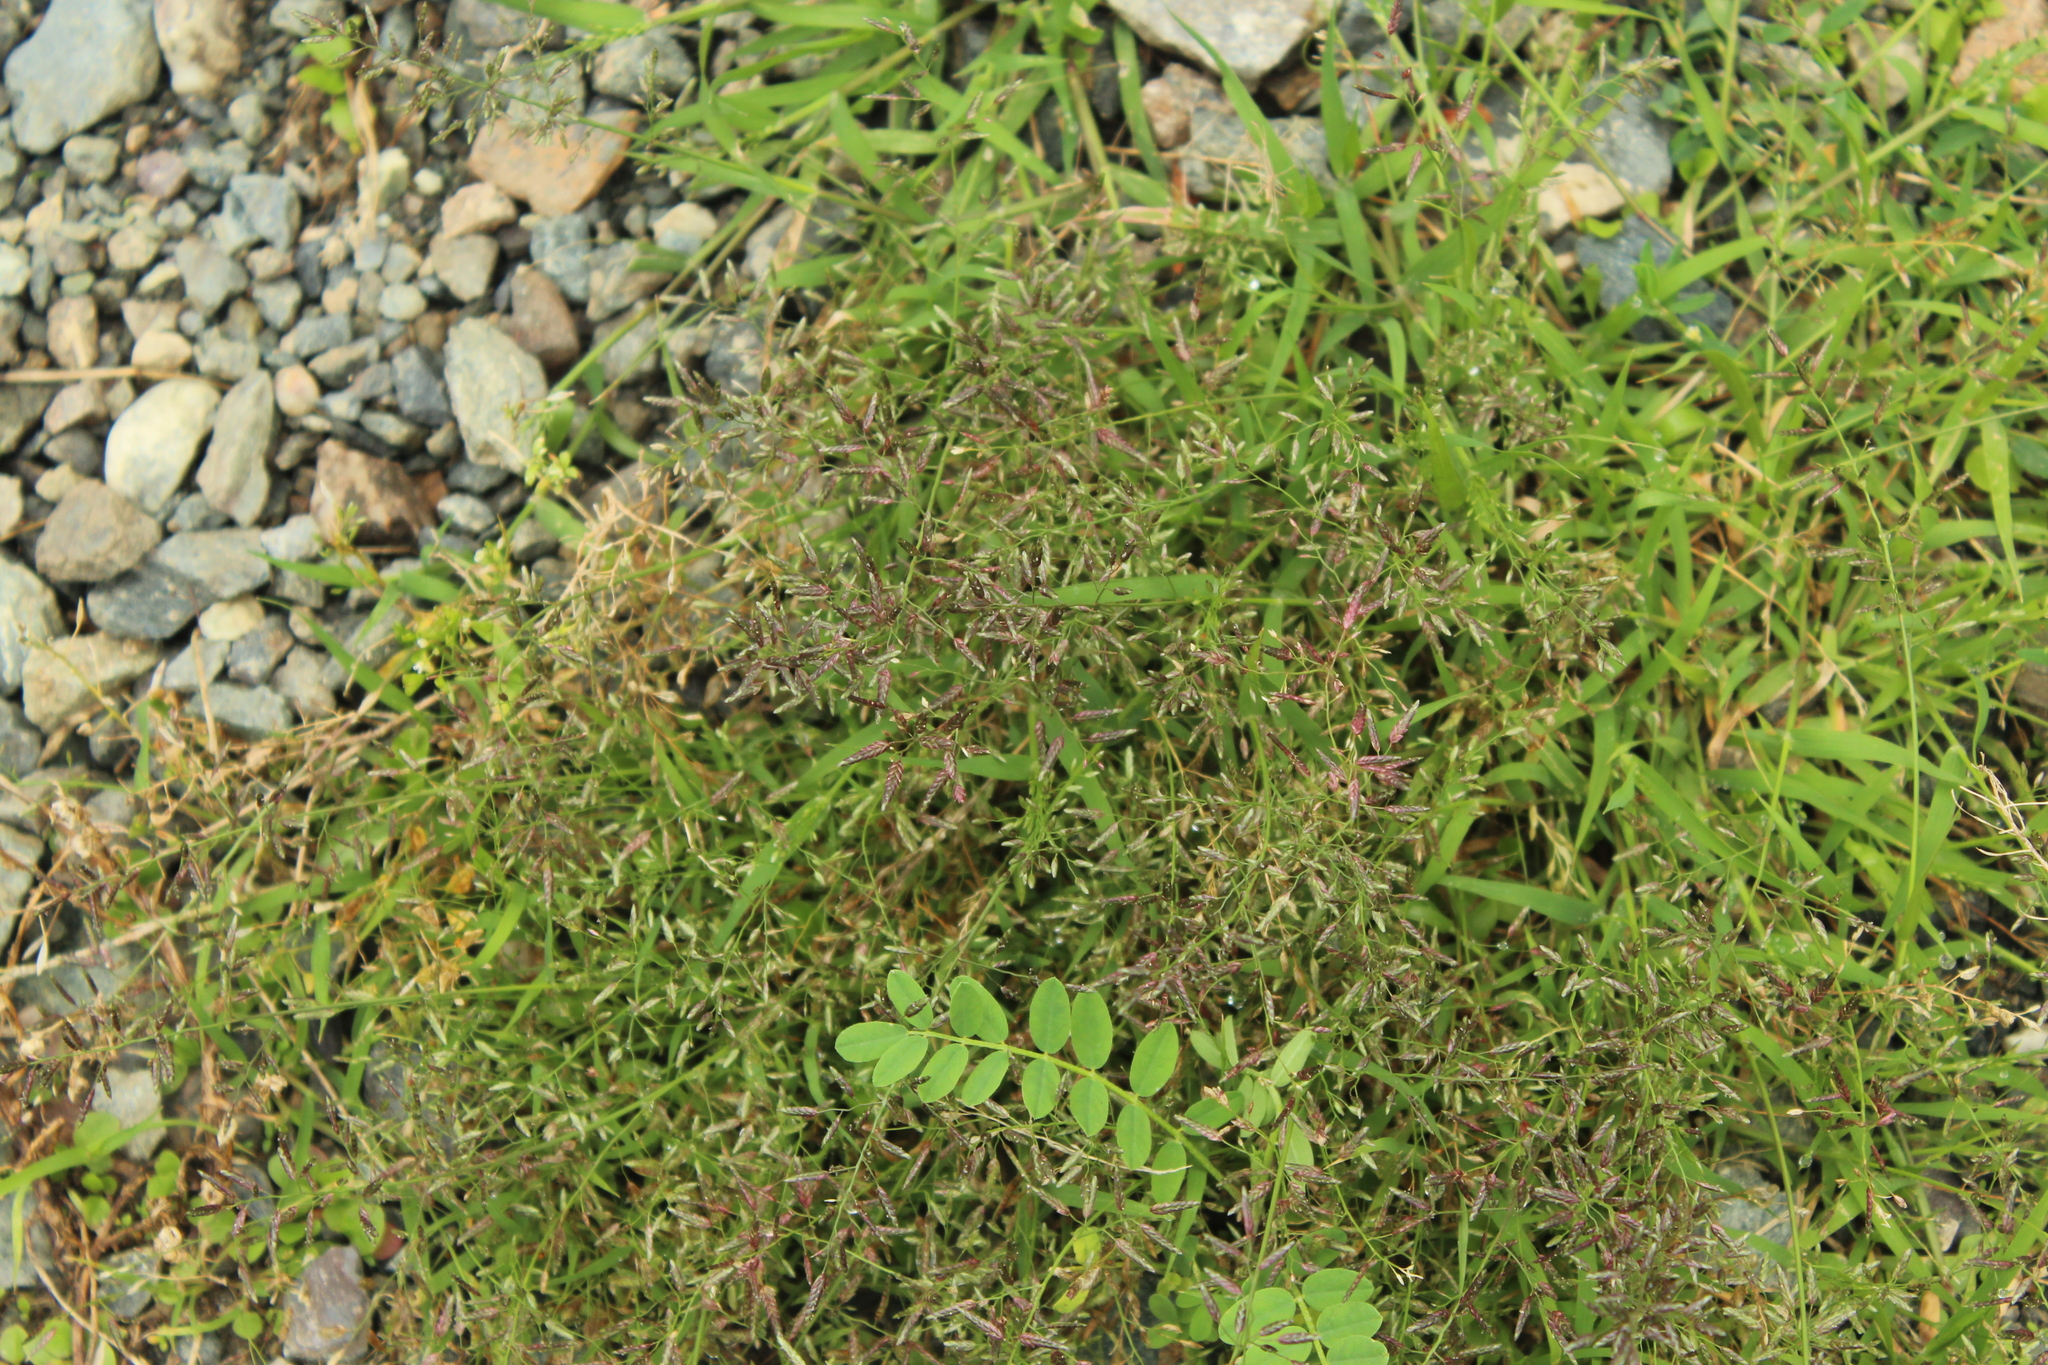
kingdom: Plantae
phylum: Tracheophyta
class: Liliopsida
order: Poales
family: Poaceae
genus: Eragrostis
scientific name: Eragrostis minor
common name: Small love-grass
